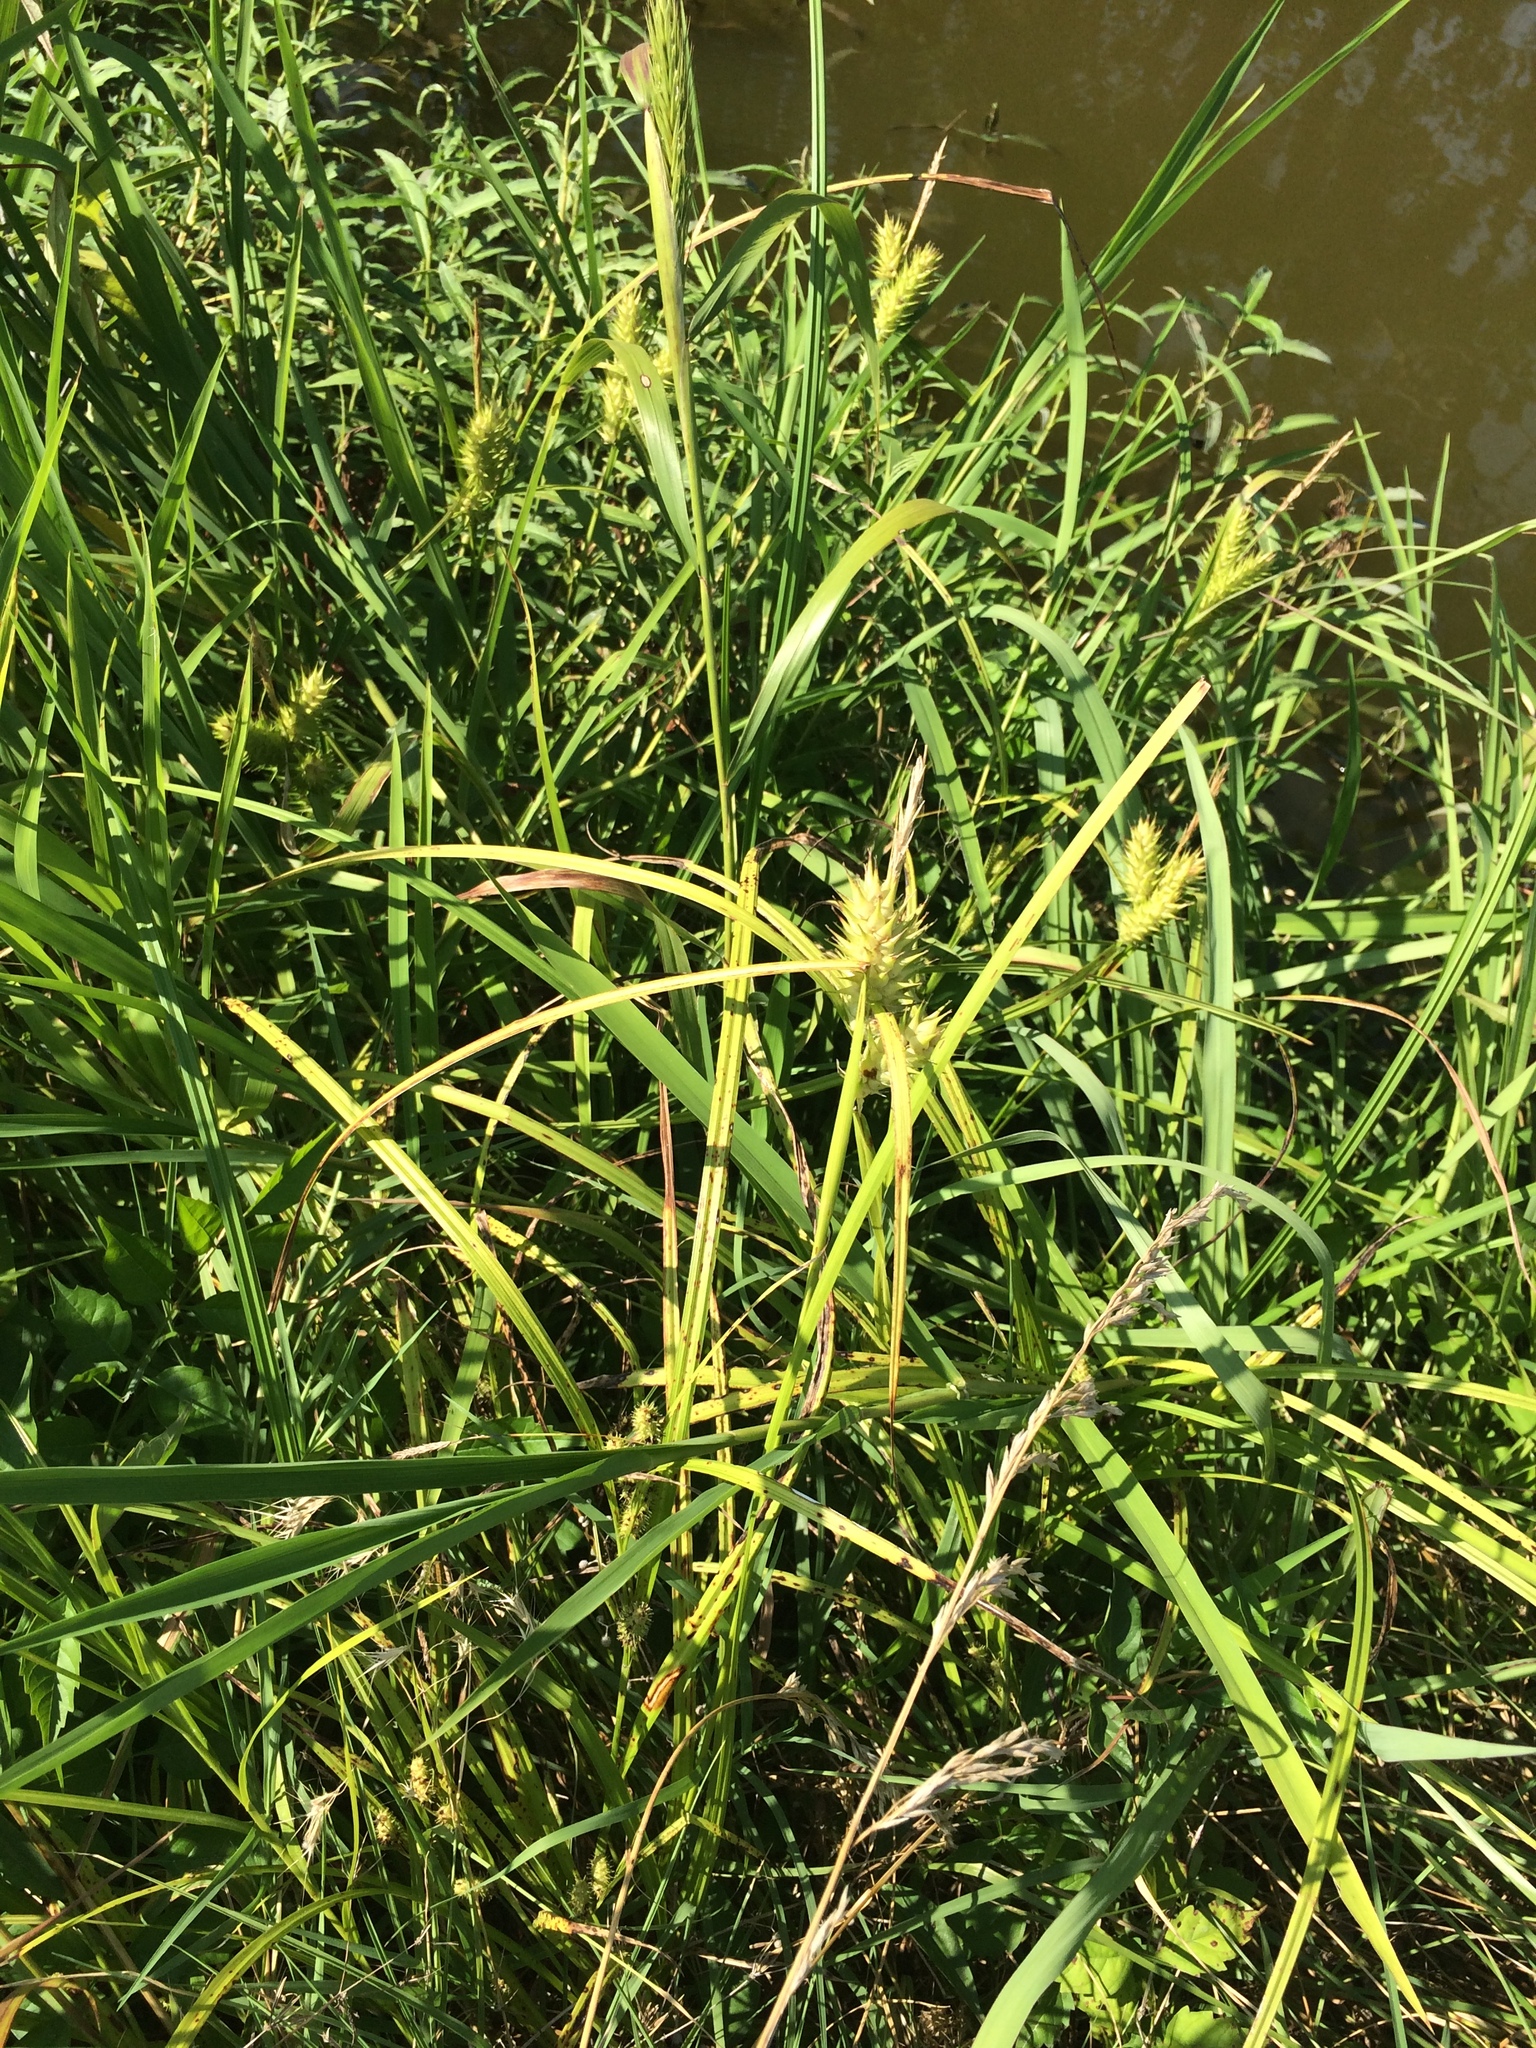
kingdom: Plantae
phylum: Tracheophyta
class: Liliopsida
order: Poales
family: Cyperaceae
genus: Carex
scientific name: Carex lupulina
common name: Hop sedge
